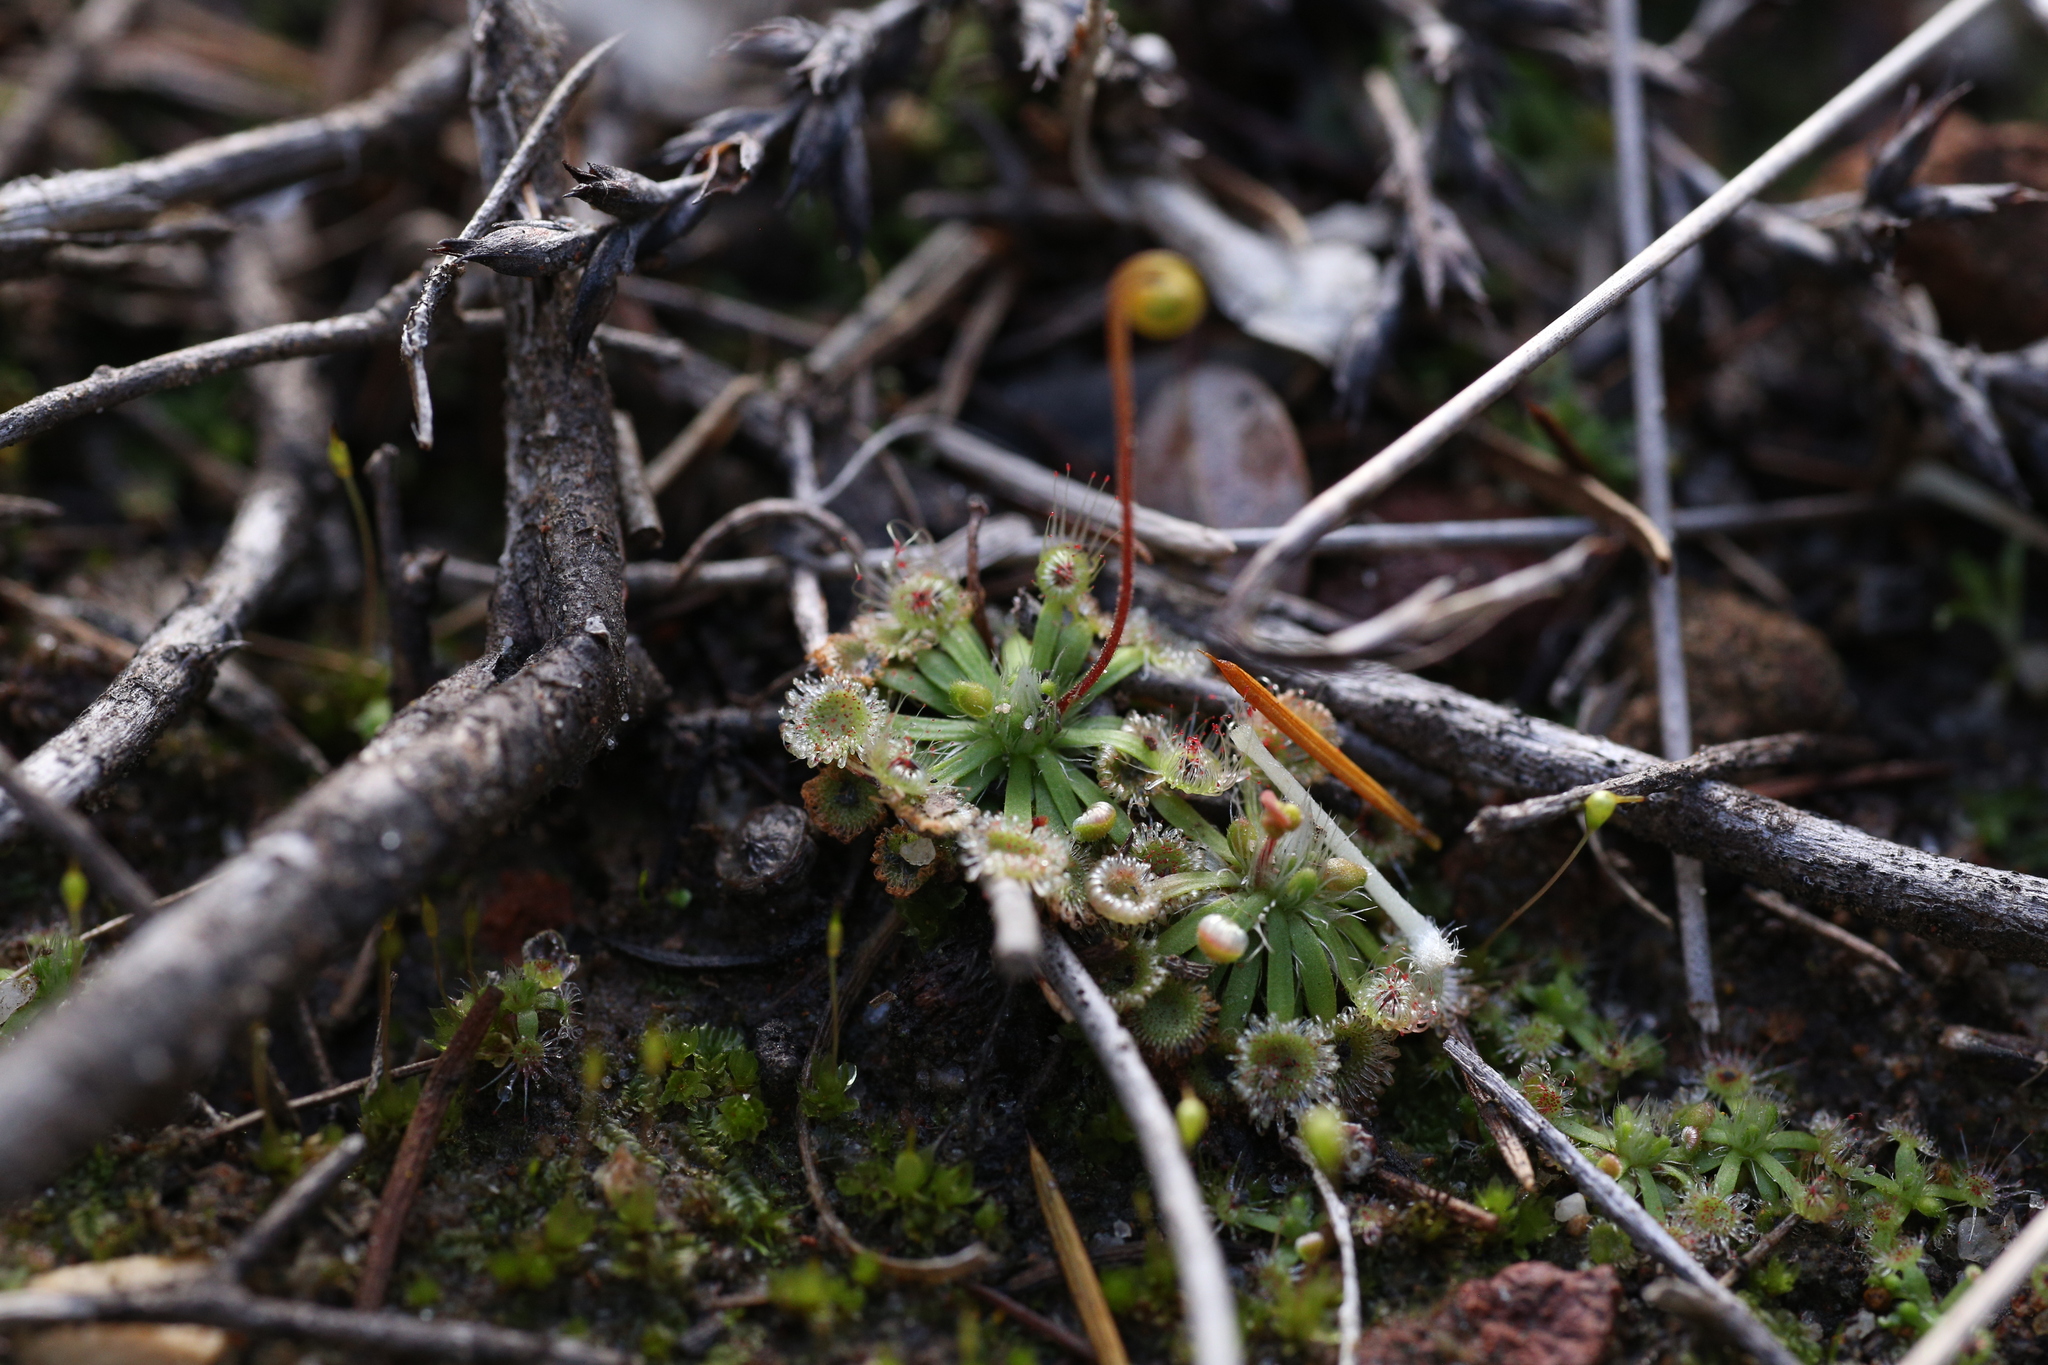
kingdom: Plantae
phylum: Tracheophyta
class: Magnoliopsida
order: Caryophyllales
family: Droseraceae
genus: Drosera
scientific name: Drosera spilos
